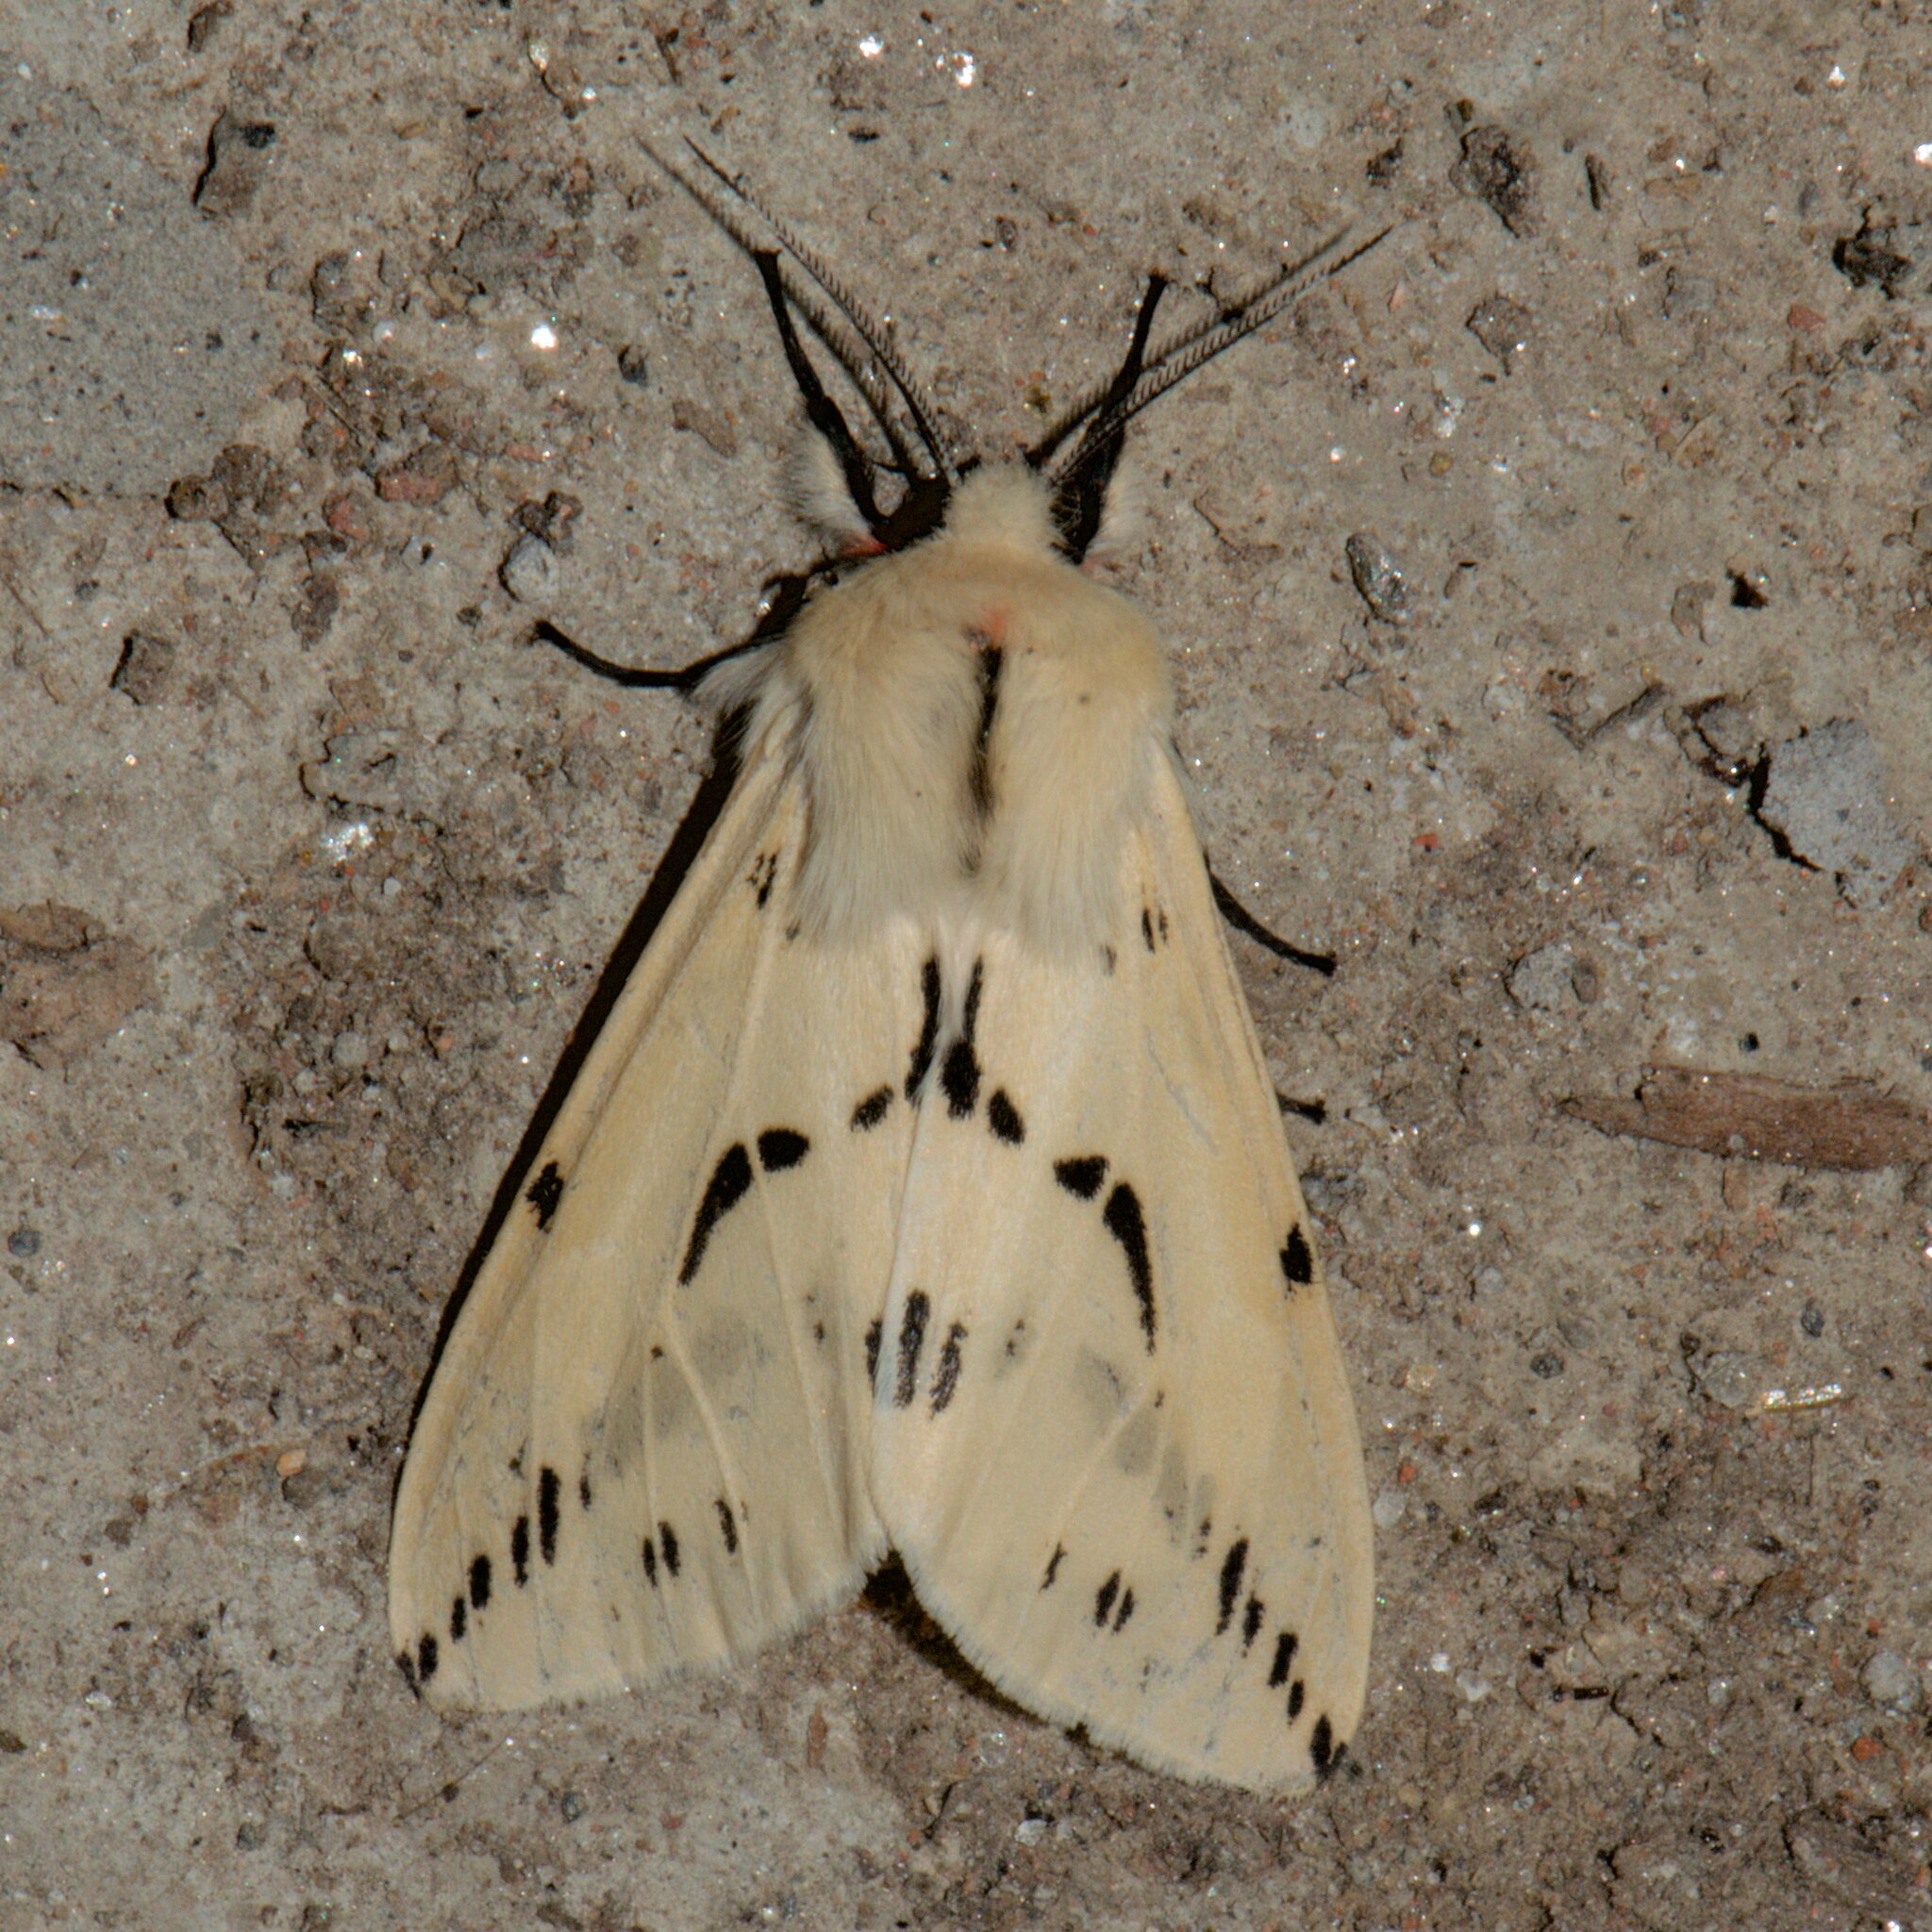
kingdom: Animalia
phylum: Arthropoda
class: Insecta
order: Lepidoptera
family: Erebidae
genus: Lemyra
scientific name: Lemyra stigmata
